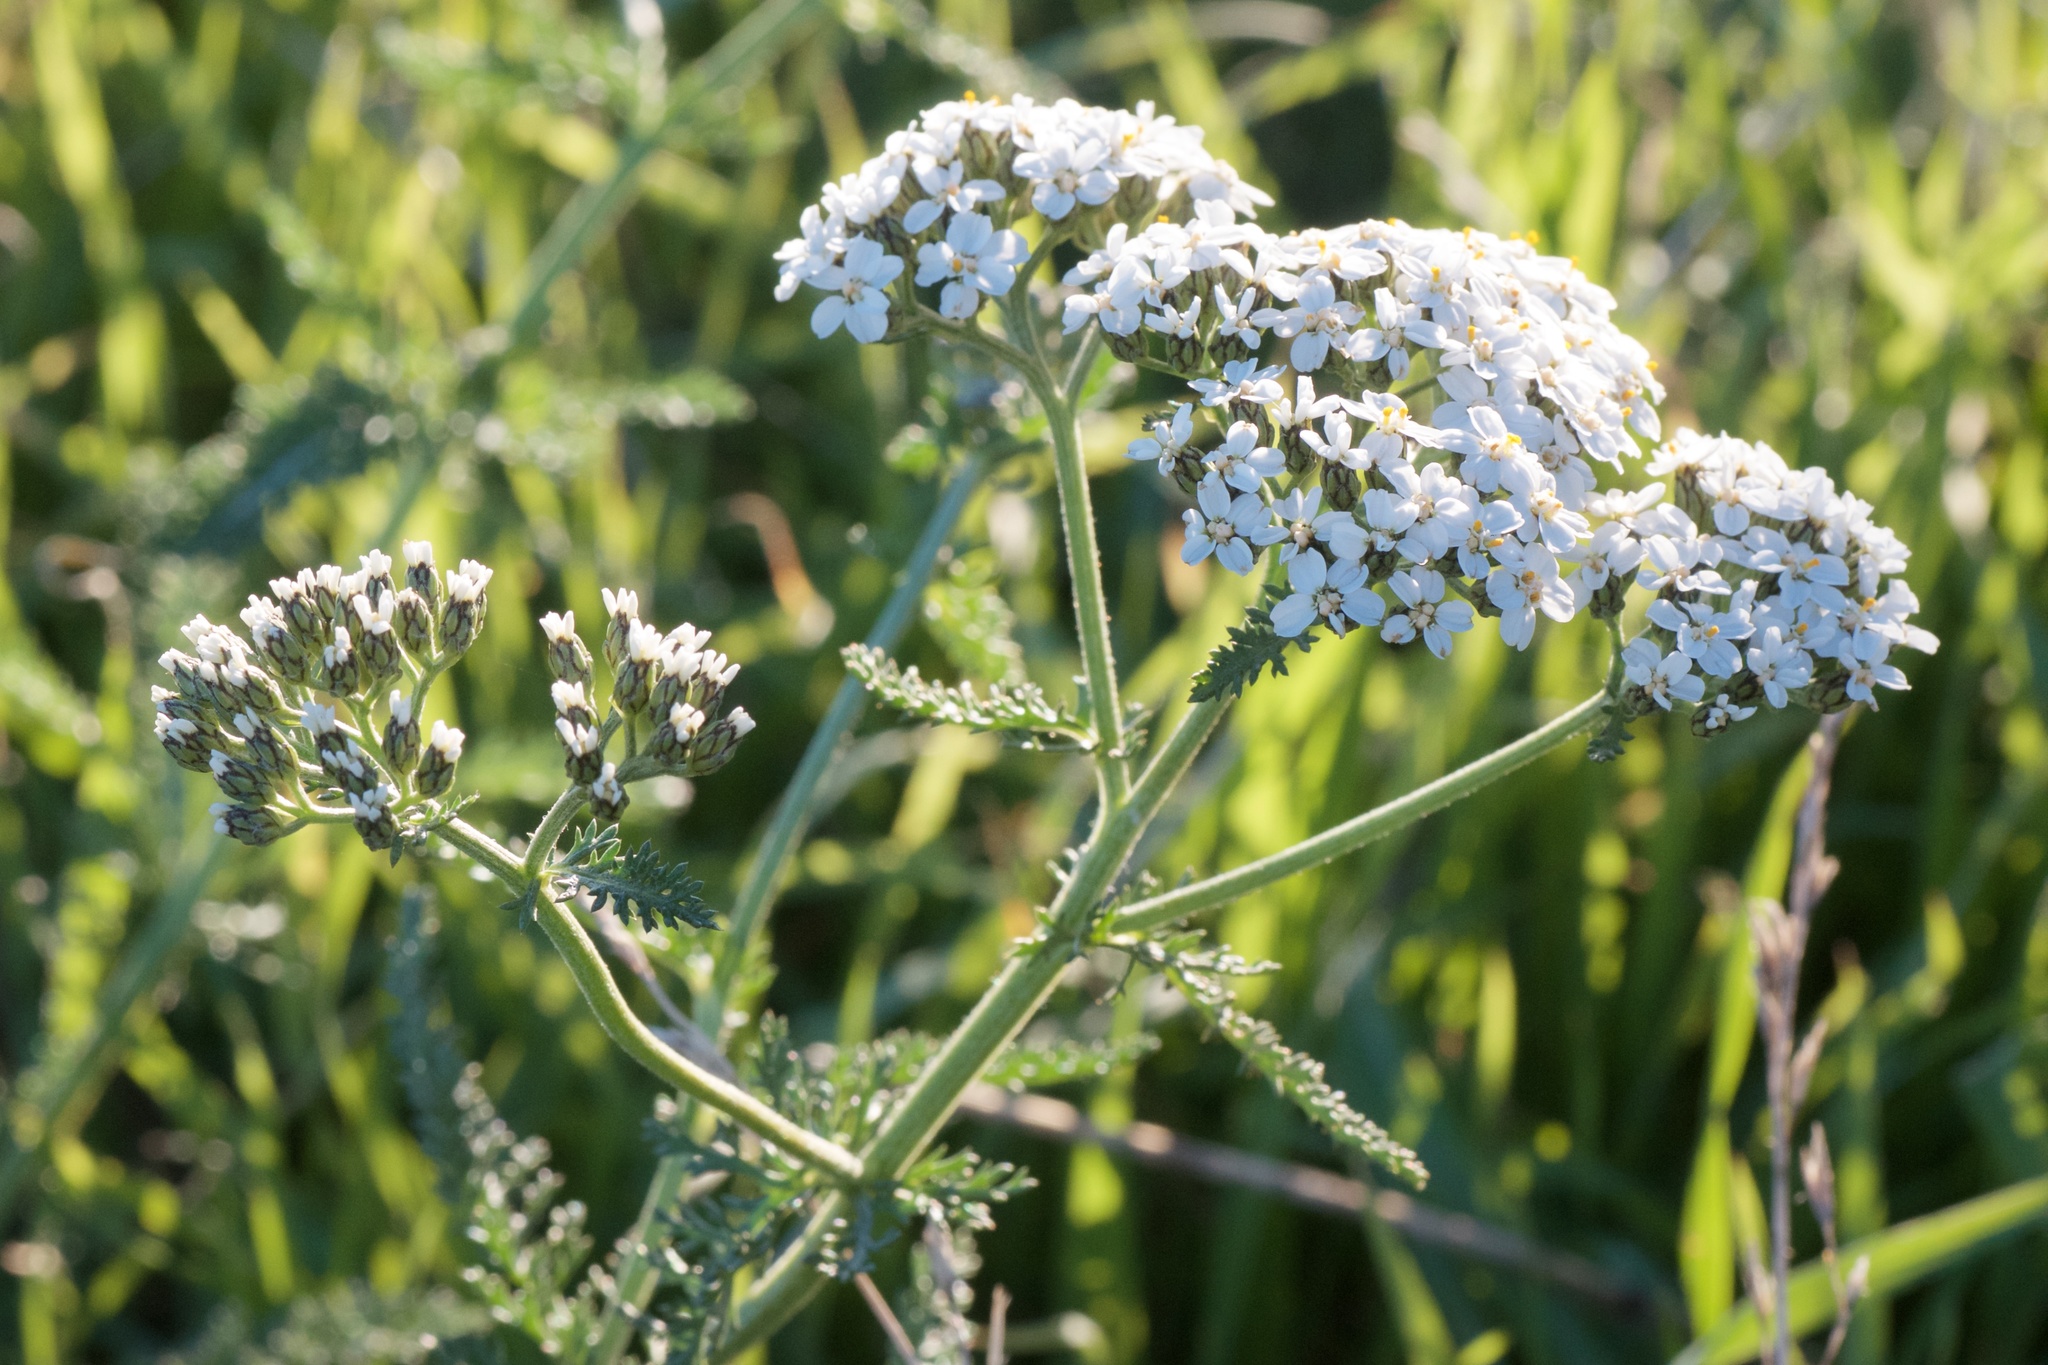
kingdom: Plantae
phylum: Tracheophyta
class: Magnoliopsida
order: Asterales
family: Asteraceae
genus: Achillea
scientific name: Achillea millefolium
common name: Yarrow
